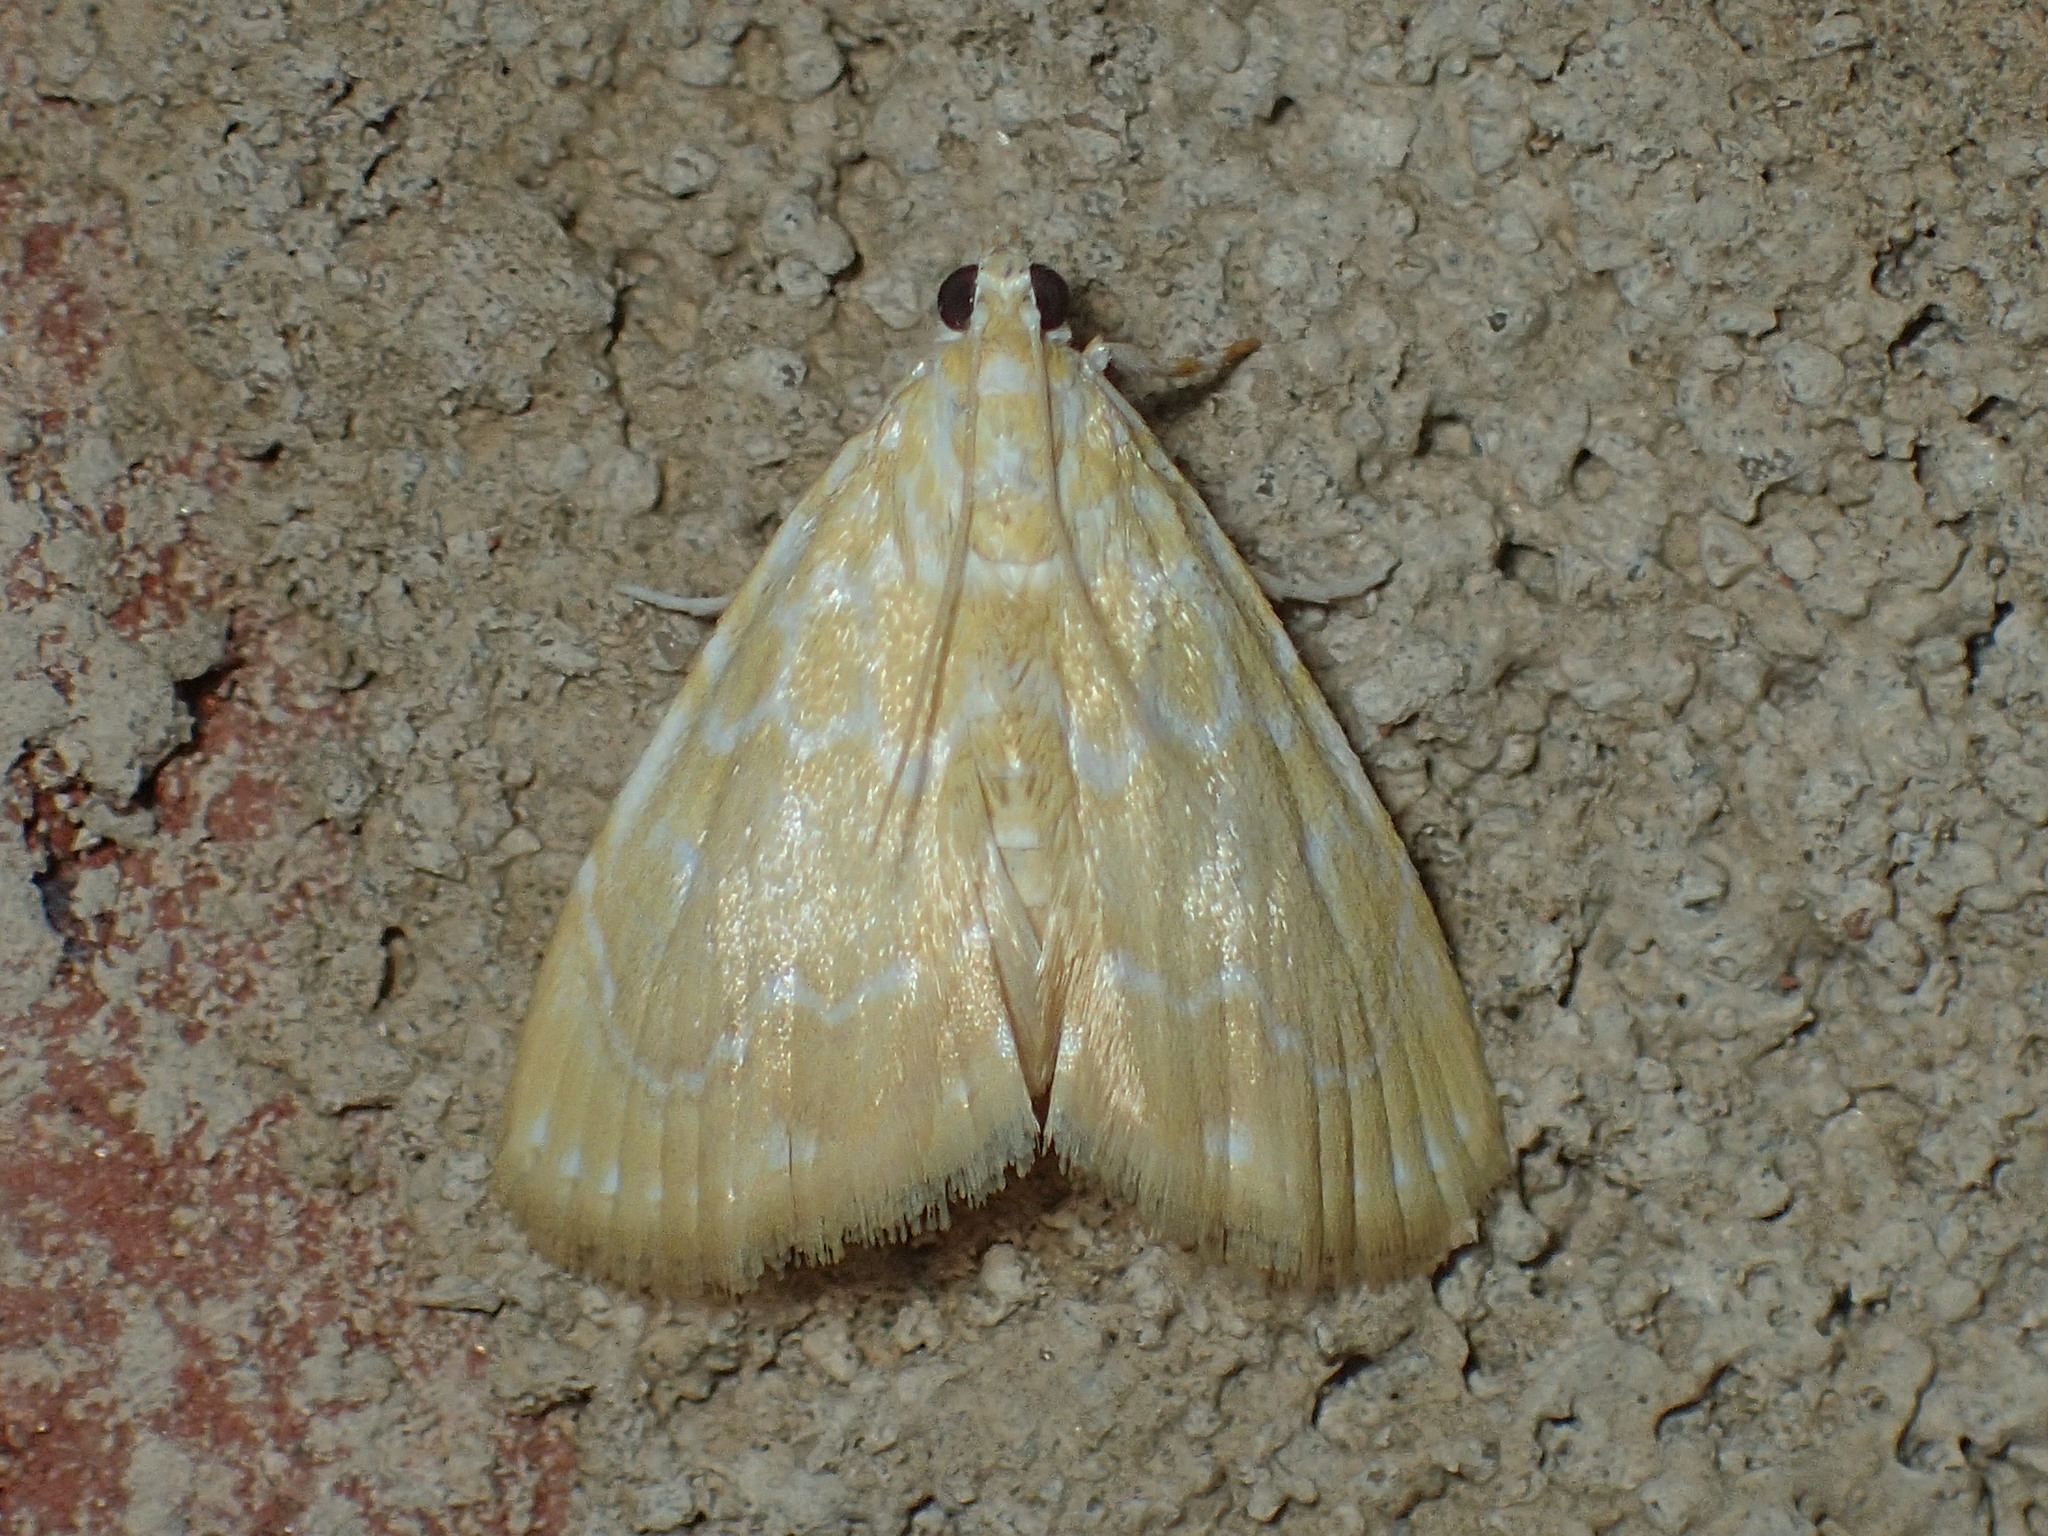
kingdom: Animalia
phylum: Arthropoda
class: Insecta
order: Lepidoptera
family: Crambidae
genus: Glaphyria
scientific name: Glaphyria glaphyralis
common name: Common glaphyria moth
